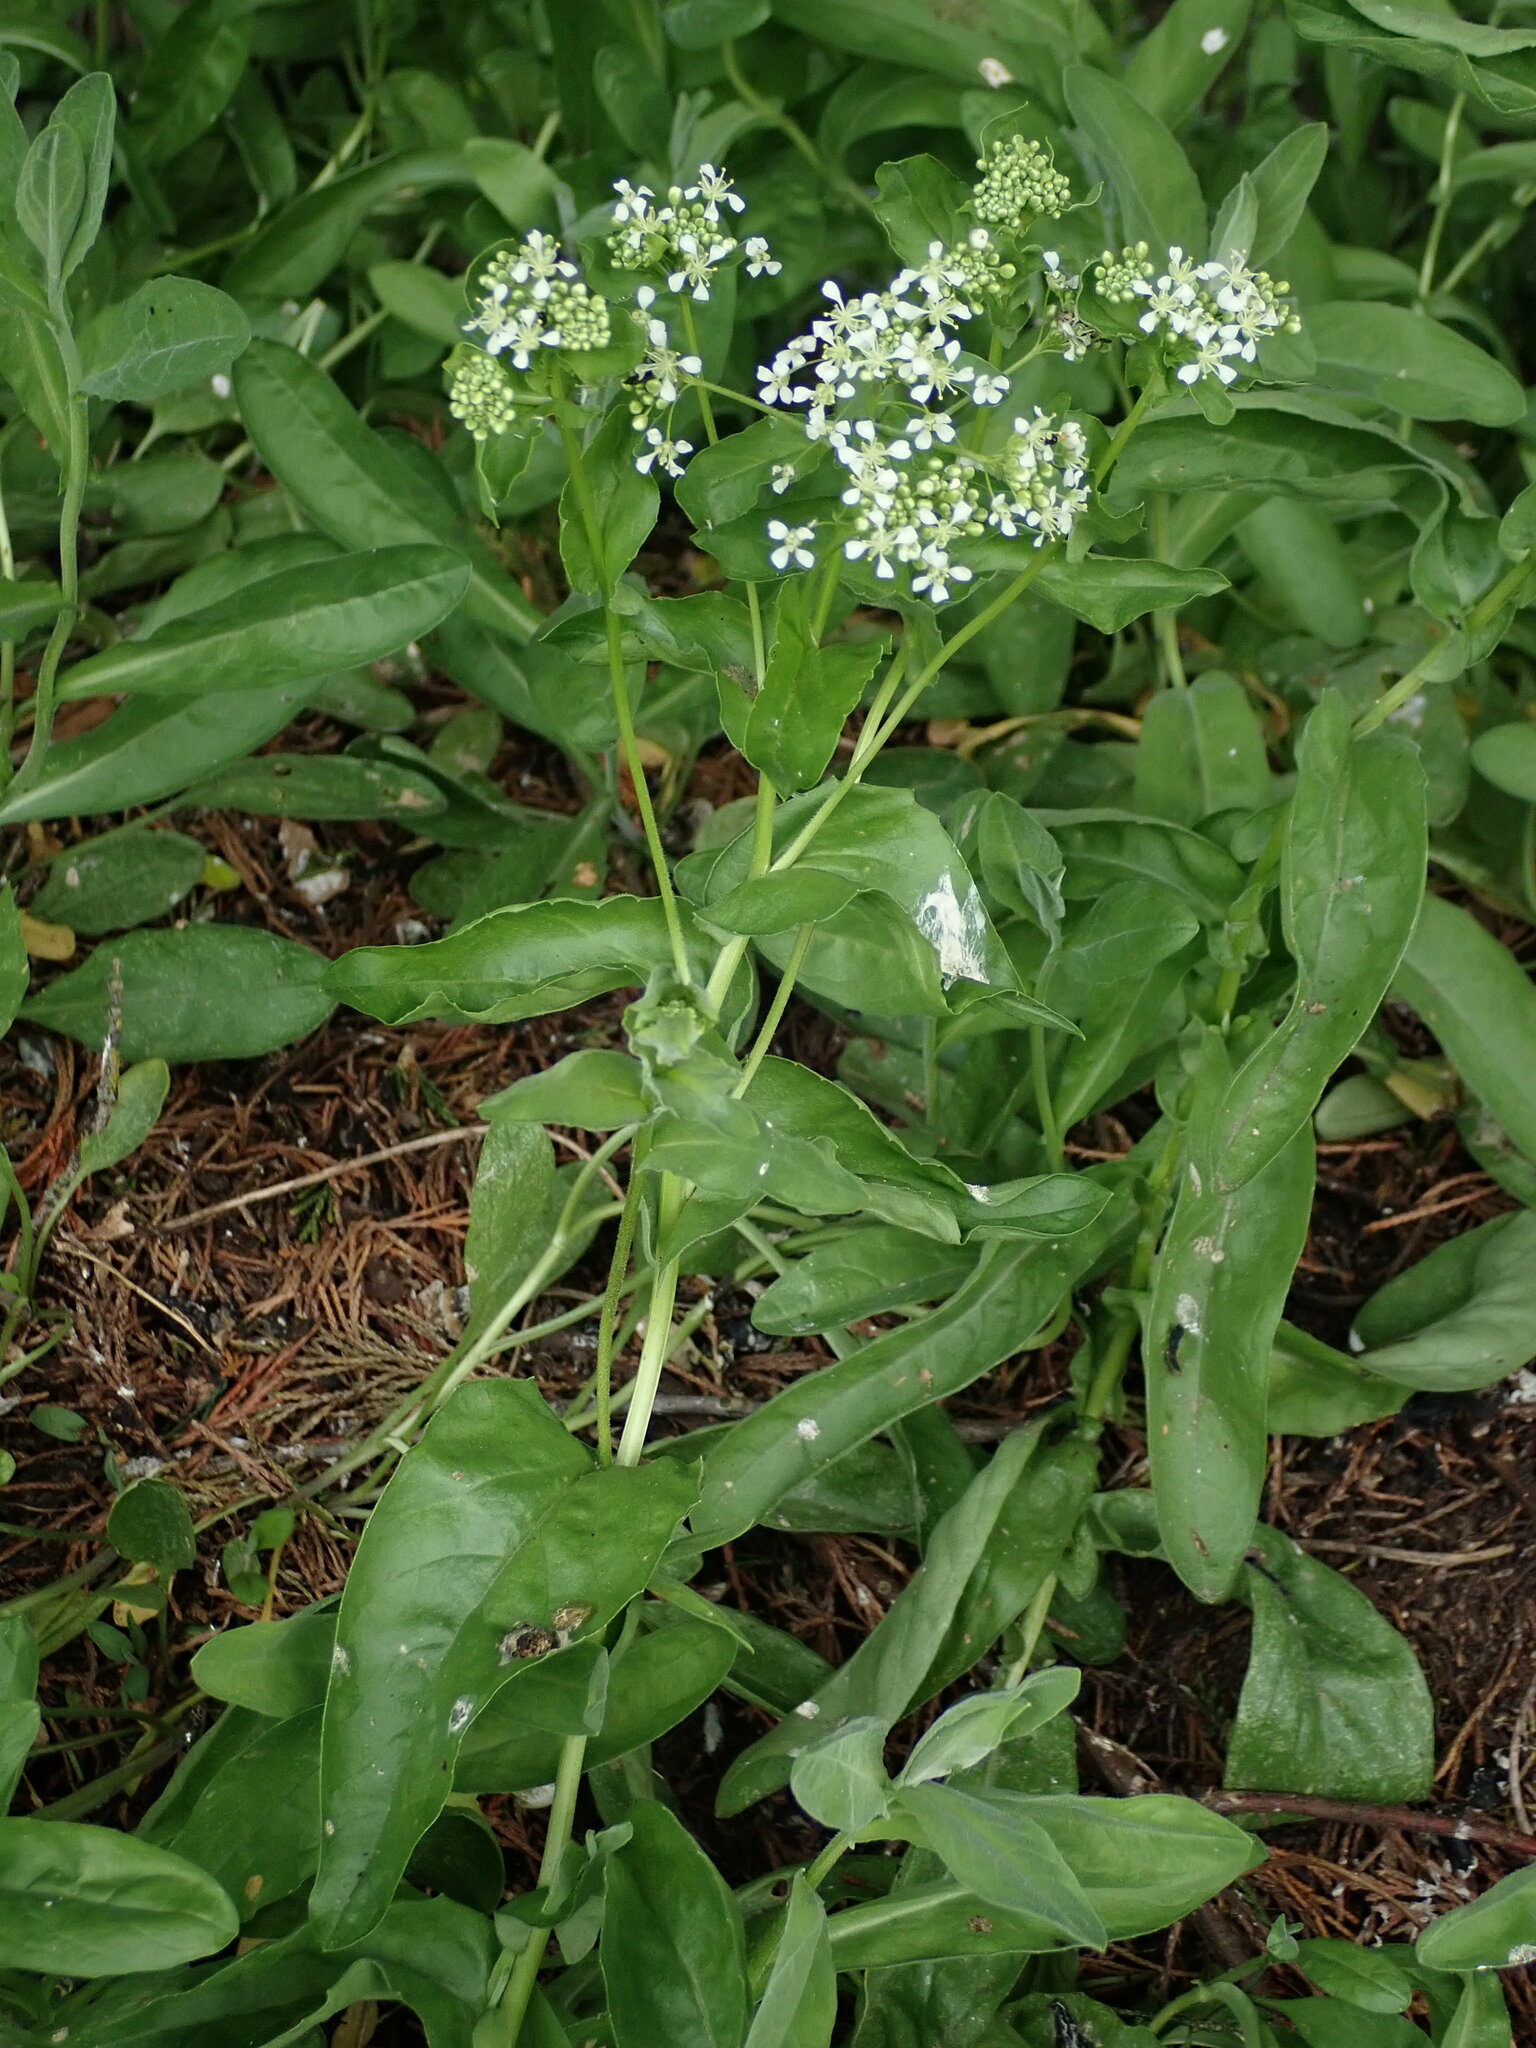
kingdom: Plantae
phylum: Tracheophyta
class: Magnoliopsida
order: Brassicales
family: Brassicaceae
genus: Lepidium
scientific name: Lepidium draba
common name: Hoary cress
